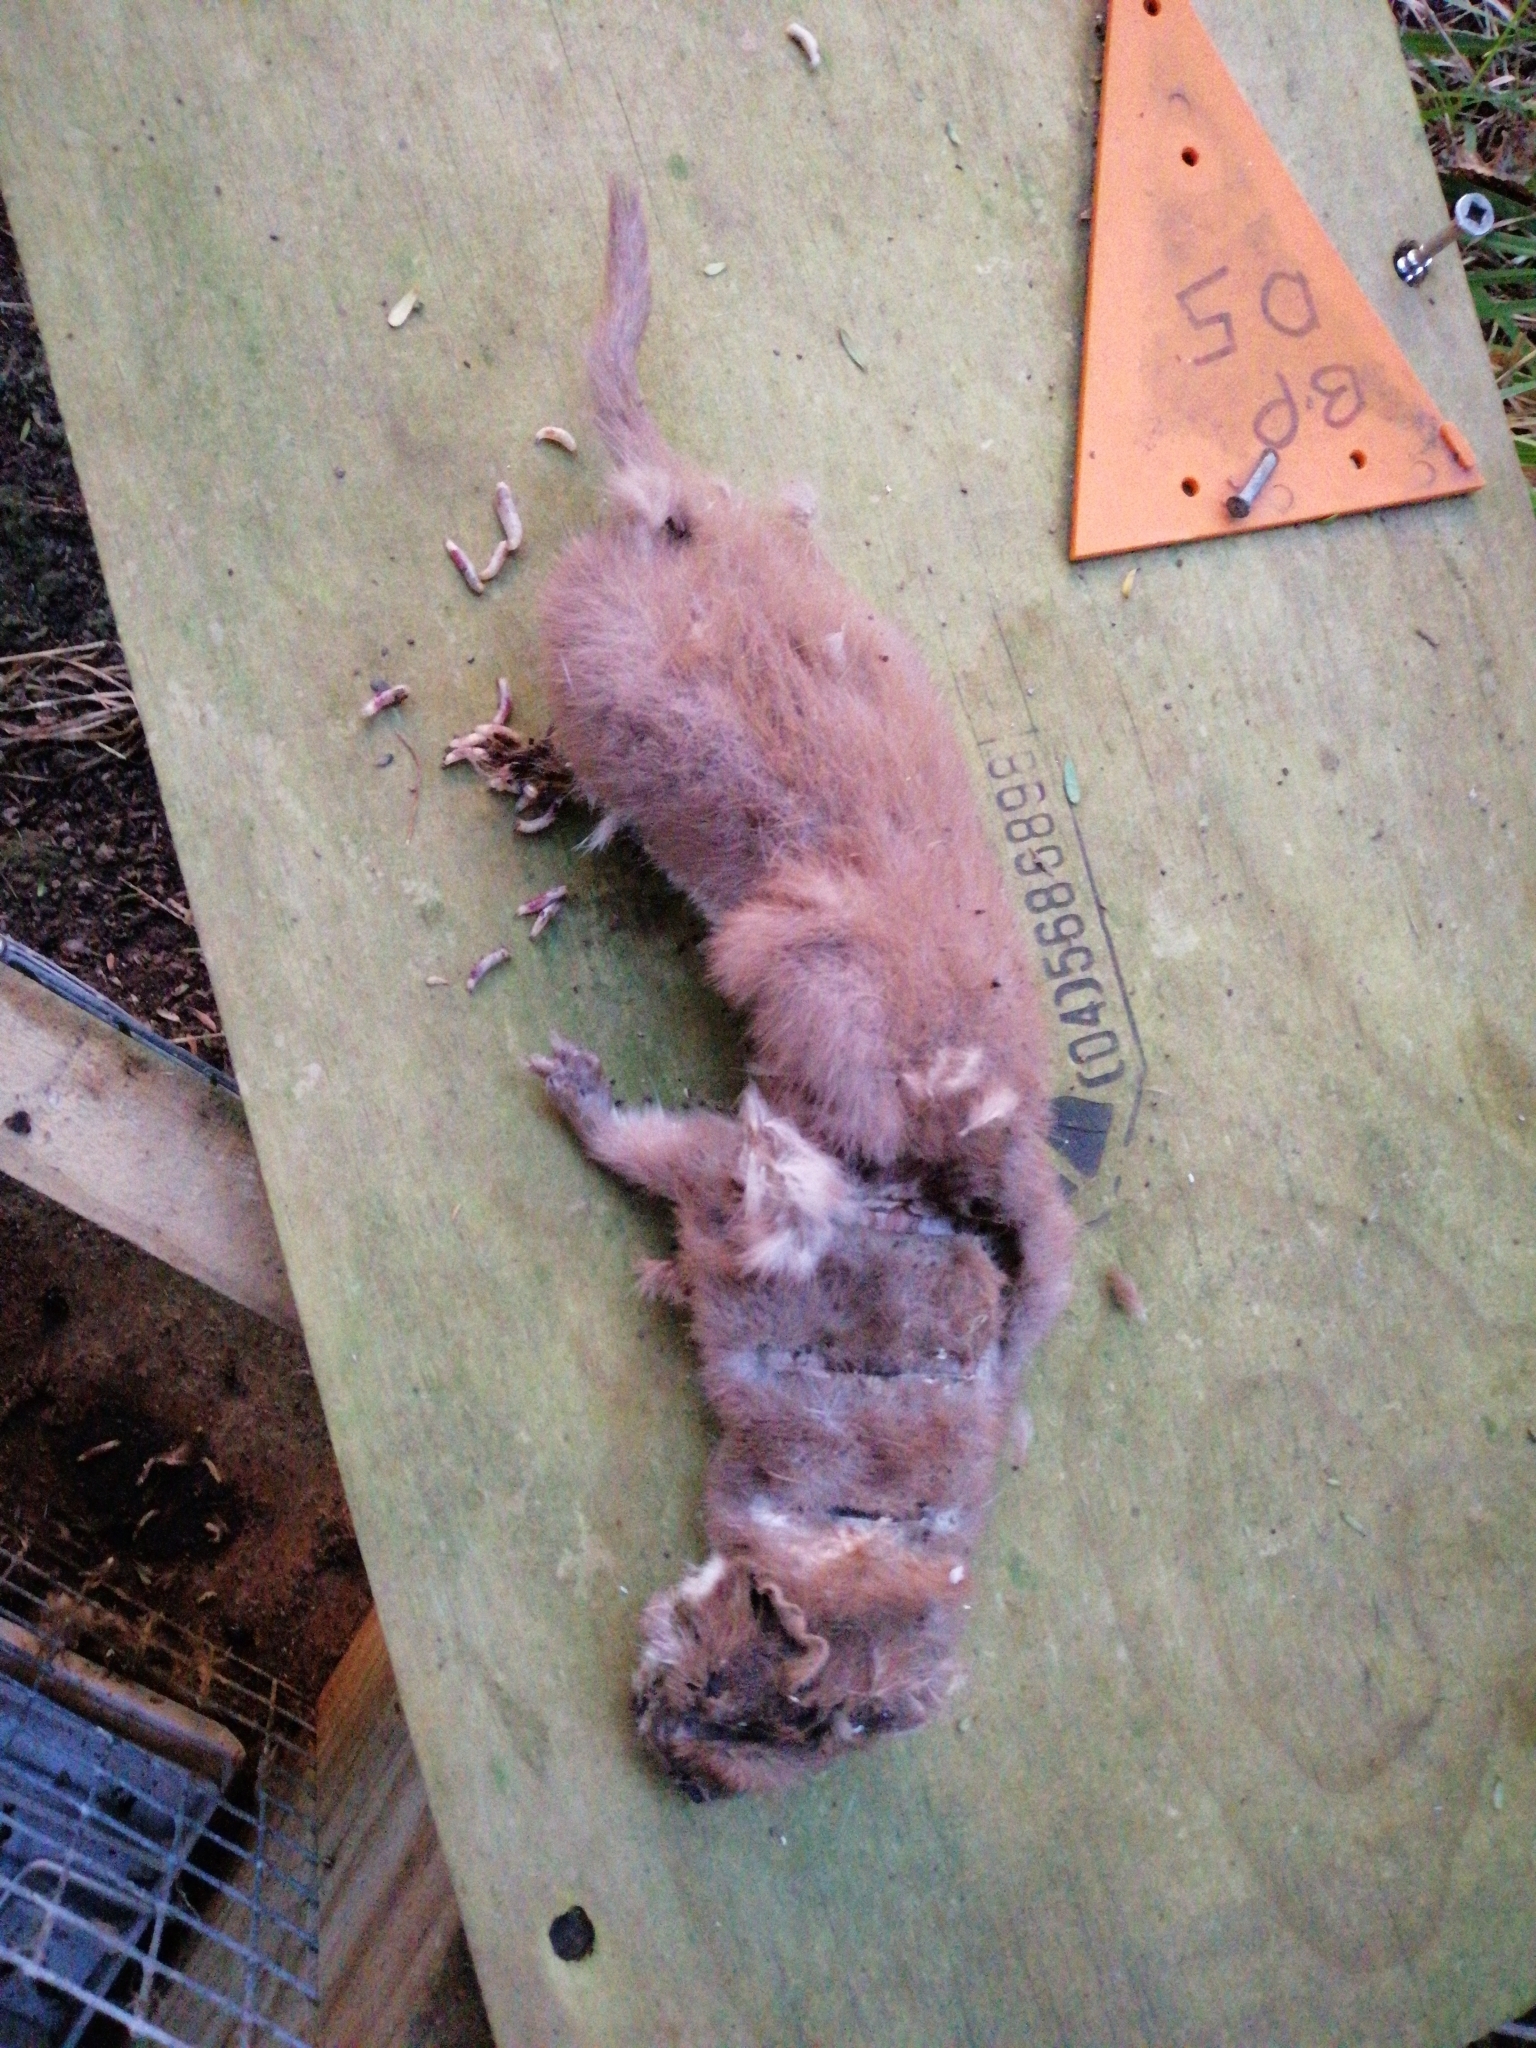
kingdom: Animalia
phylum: Chordata
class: Mammalia
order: Carnivora
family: Mustelidae
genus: Mustela
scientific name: Mustela nivalis
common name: Least weasel
